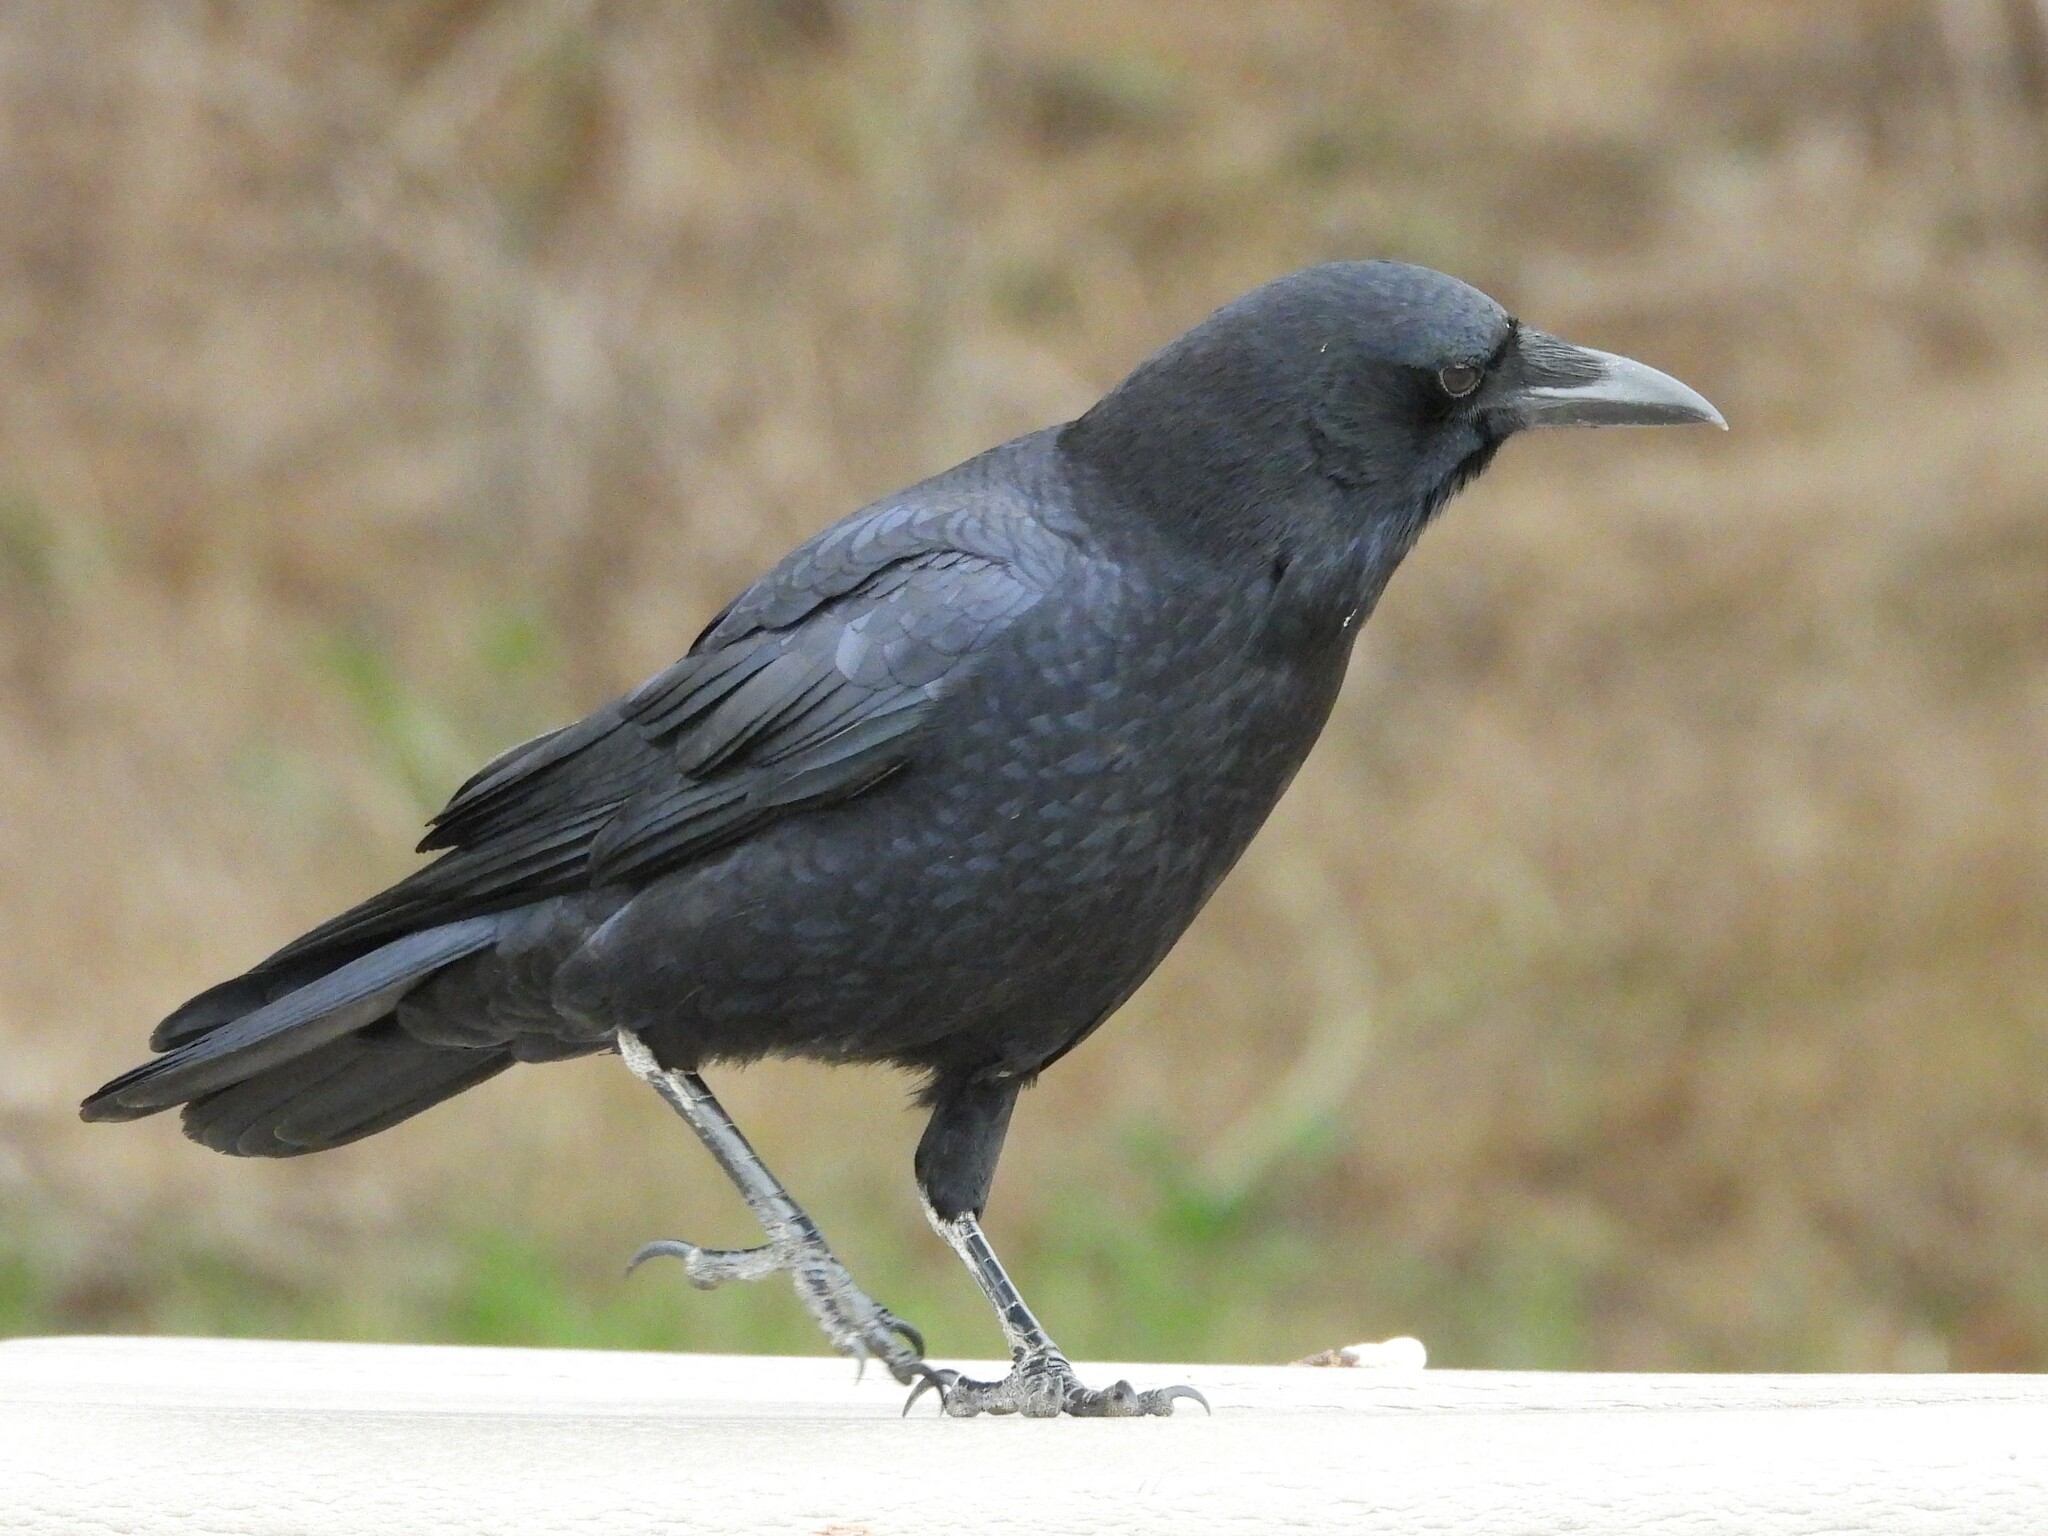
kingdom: Animalia
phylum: Chordata
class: Aves
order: Passeriformes
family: Corvidae
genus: Corvus
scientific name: Corvus brachyrhynchos
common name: American crow
